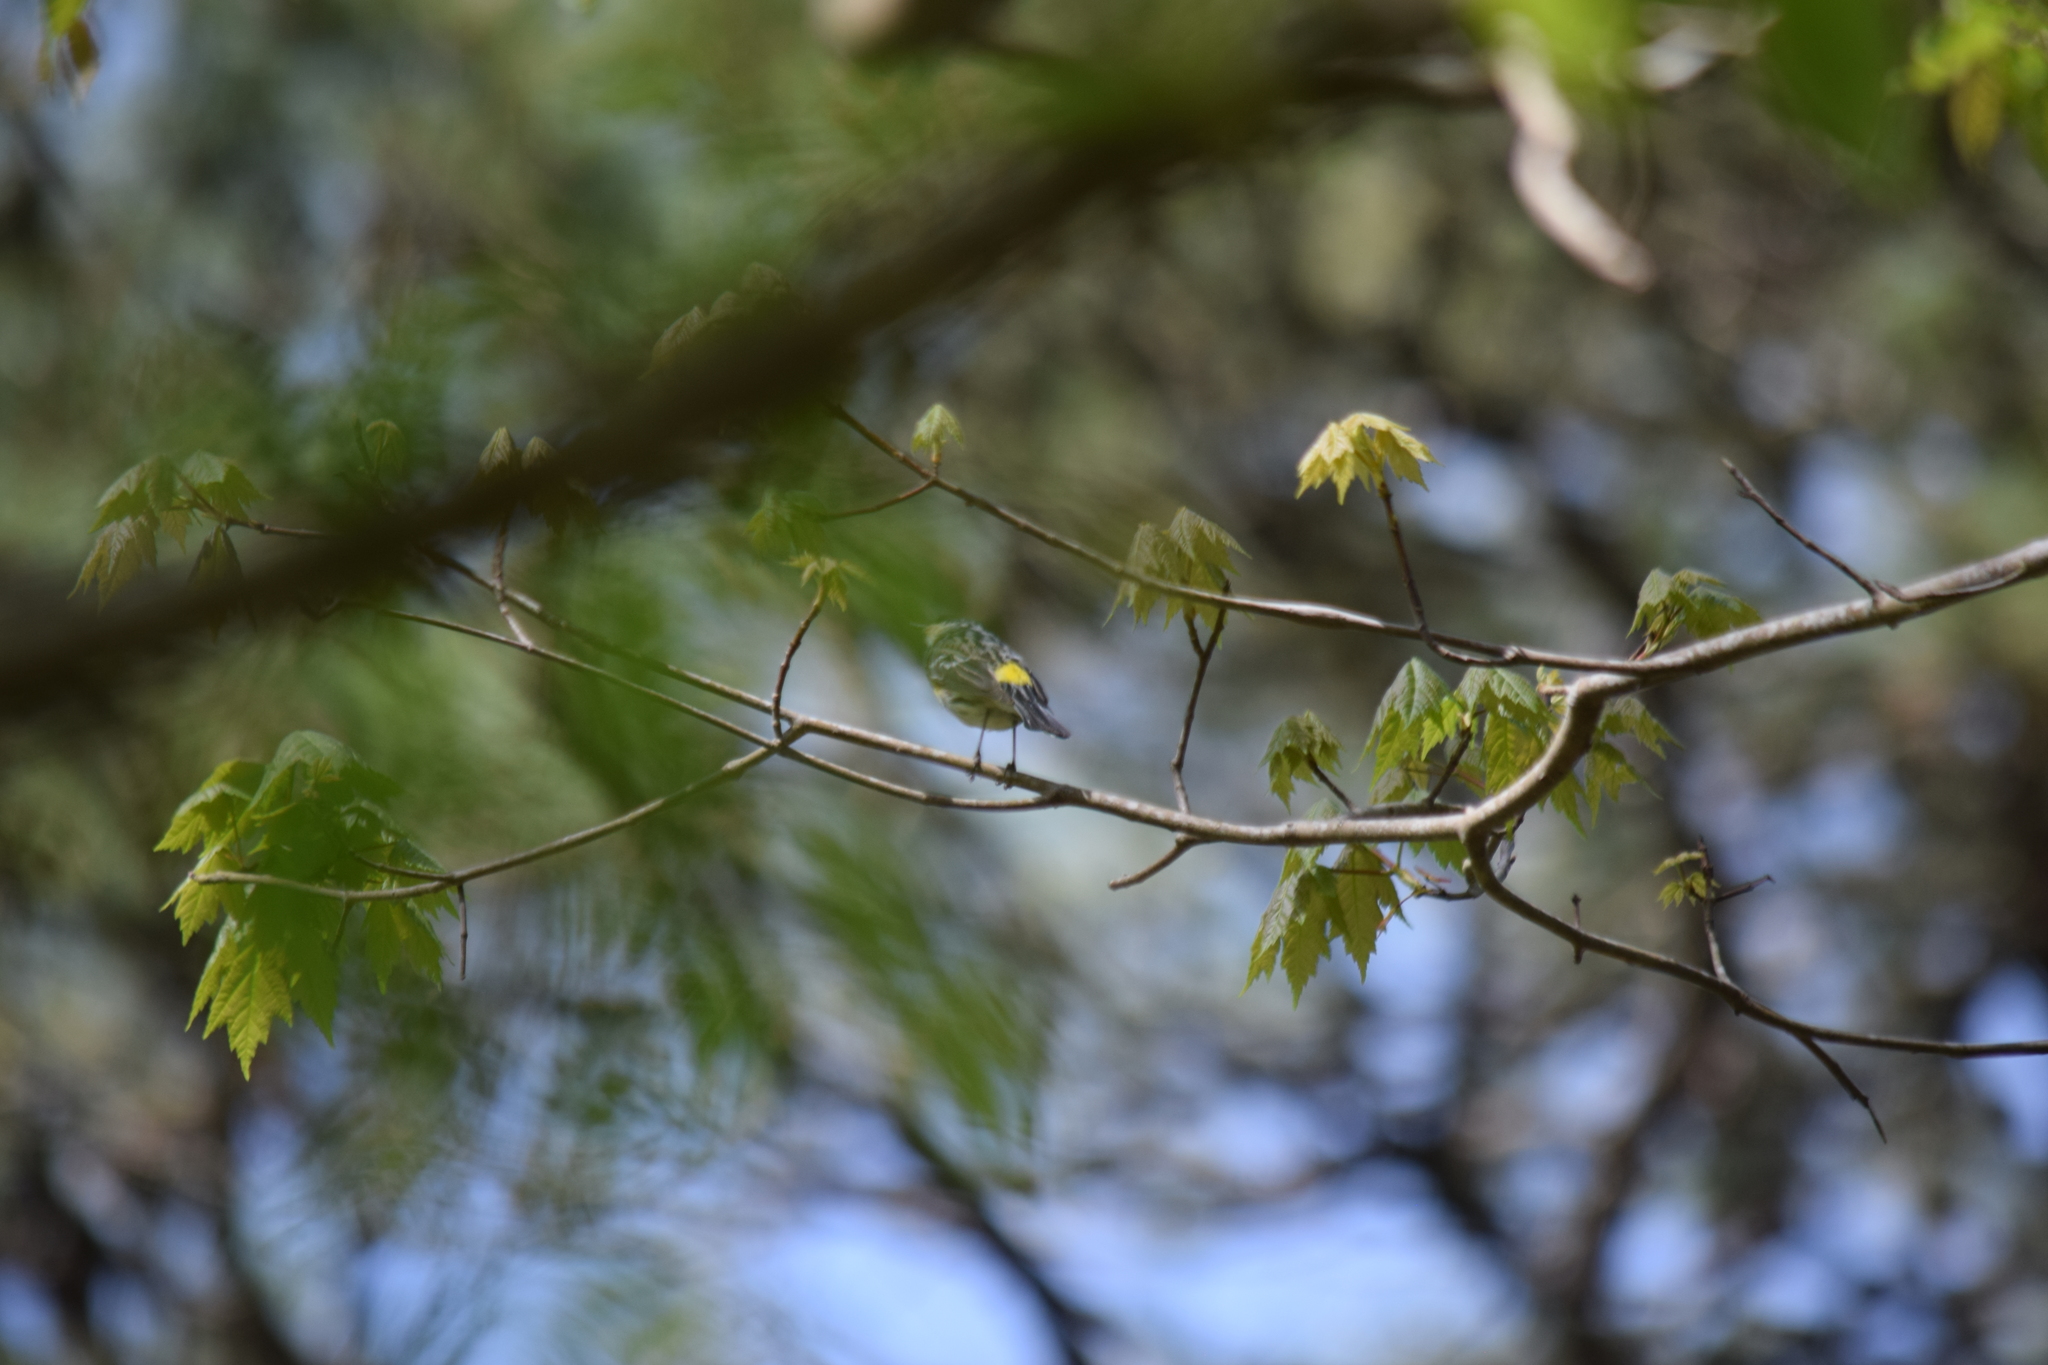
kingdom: Animalia
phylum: Chordata
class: Aves
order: Passeriformes
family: Parulidae
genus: Setophaga
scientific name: Setophaga coronata
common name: Myrtle warbler
